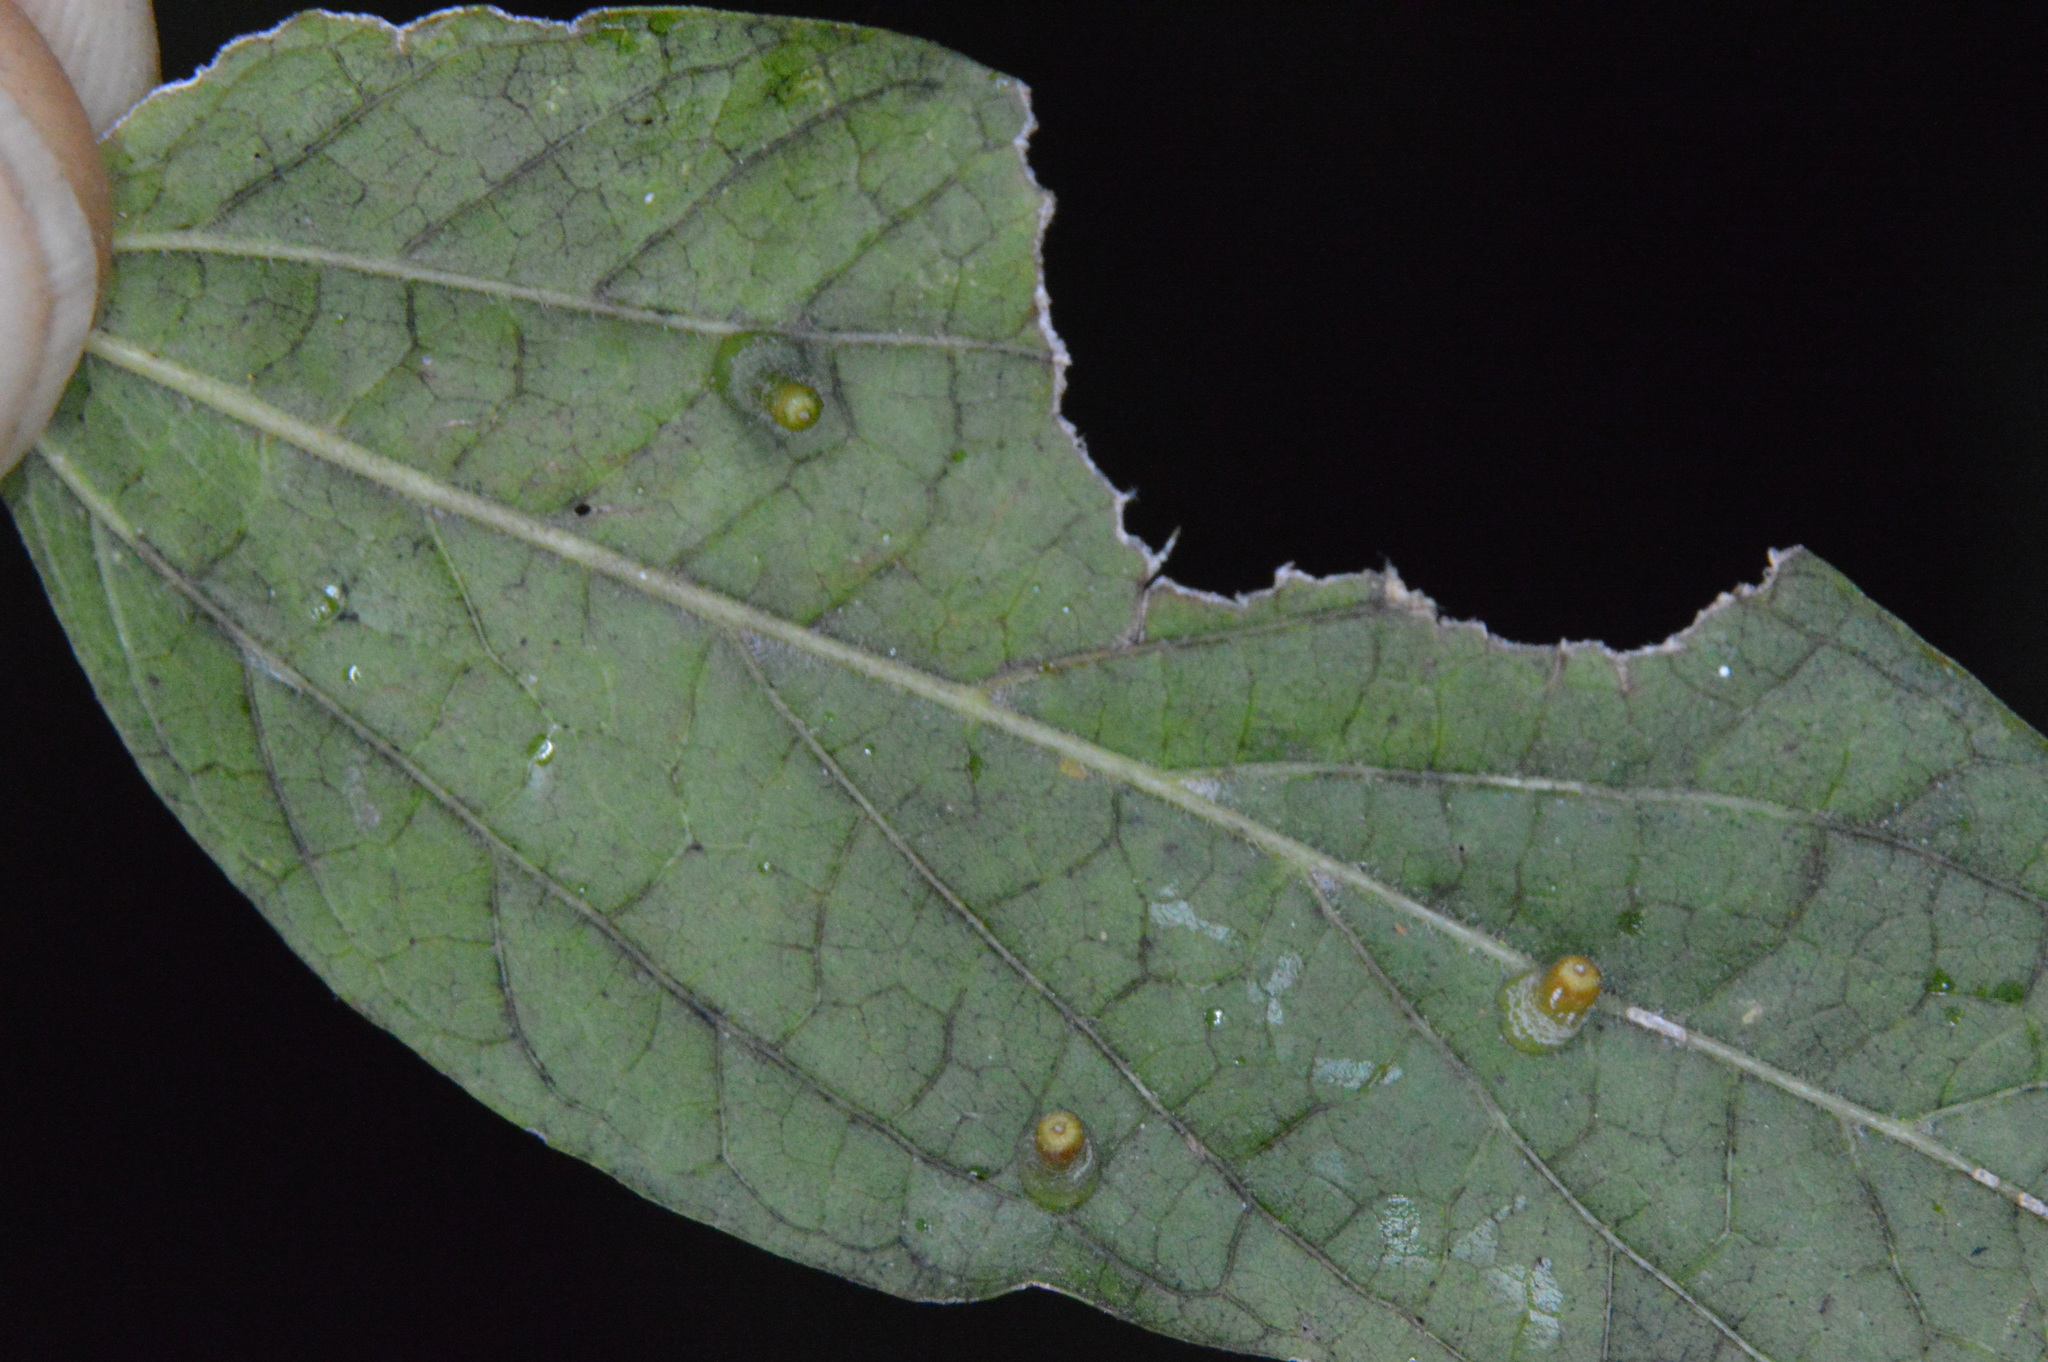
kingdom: Animalia
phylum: Arthropoda
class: Insecta
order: Diptera
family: Cecidomyiidae
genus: Celticecis
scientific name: Celticecis aciculata
